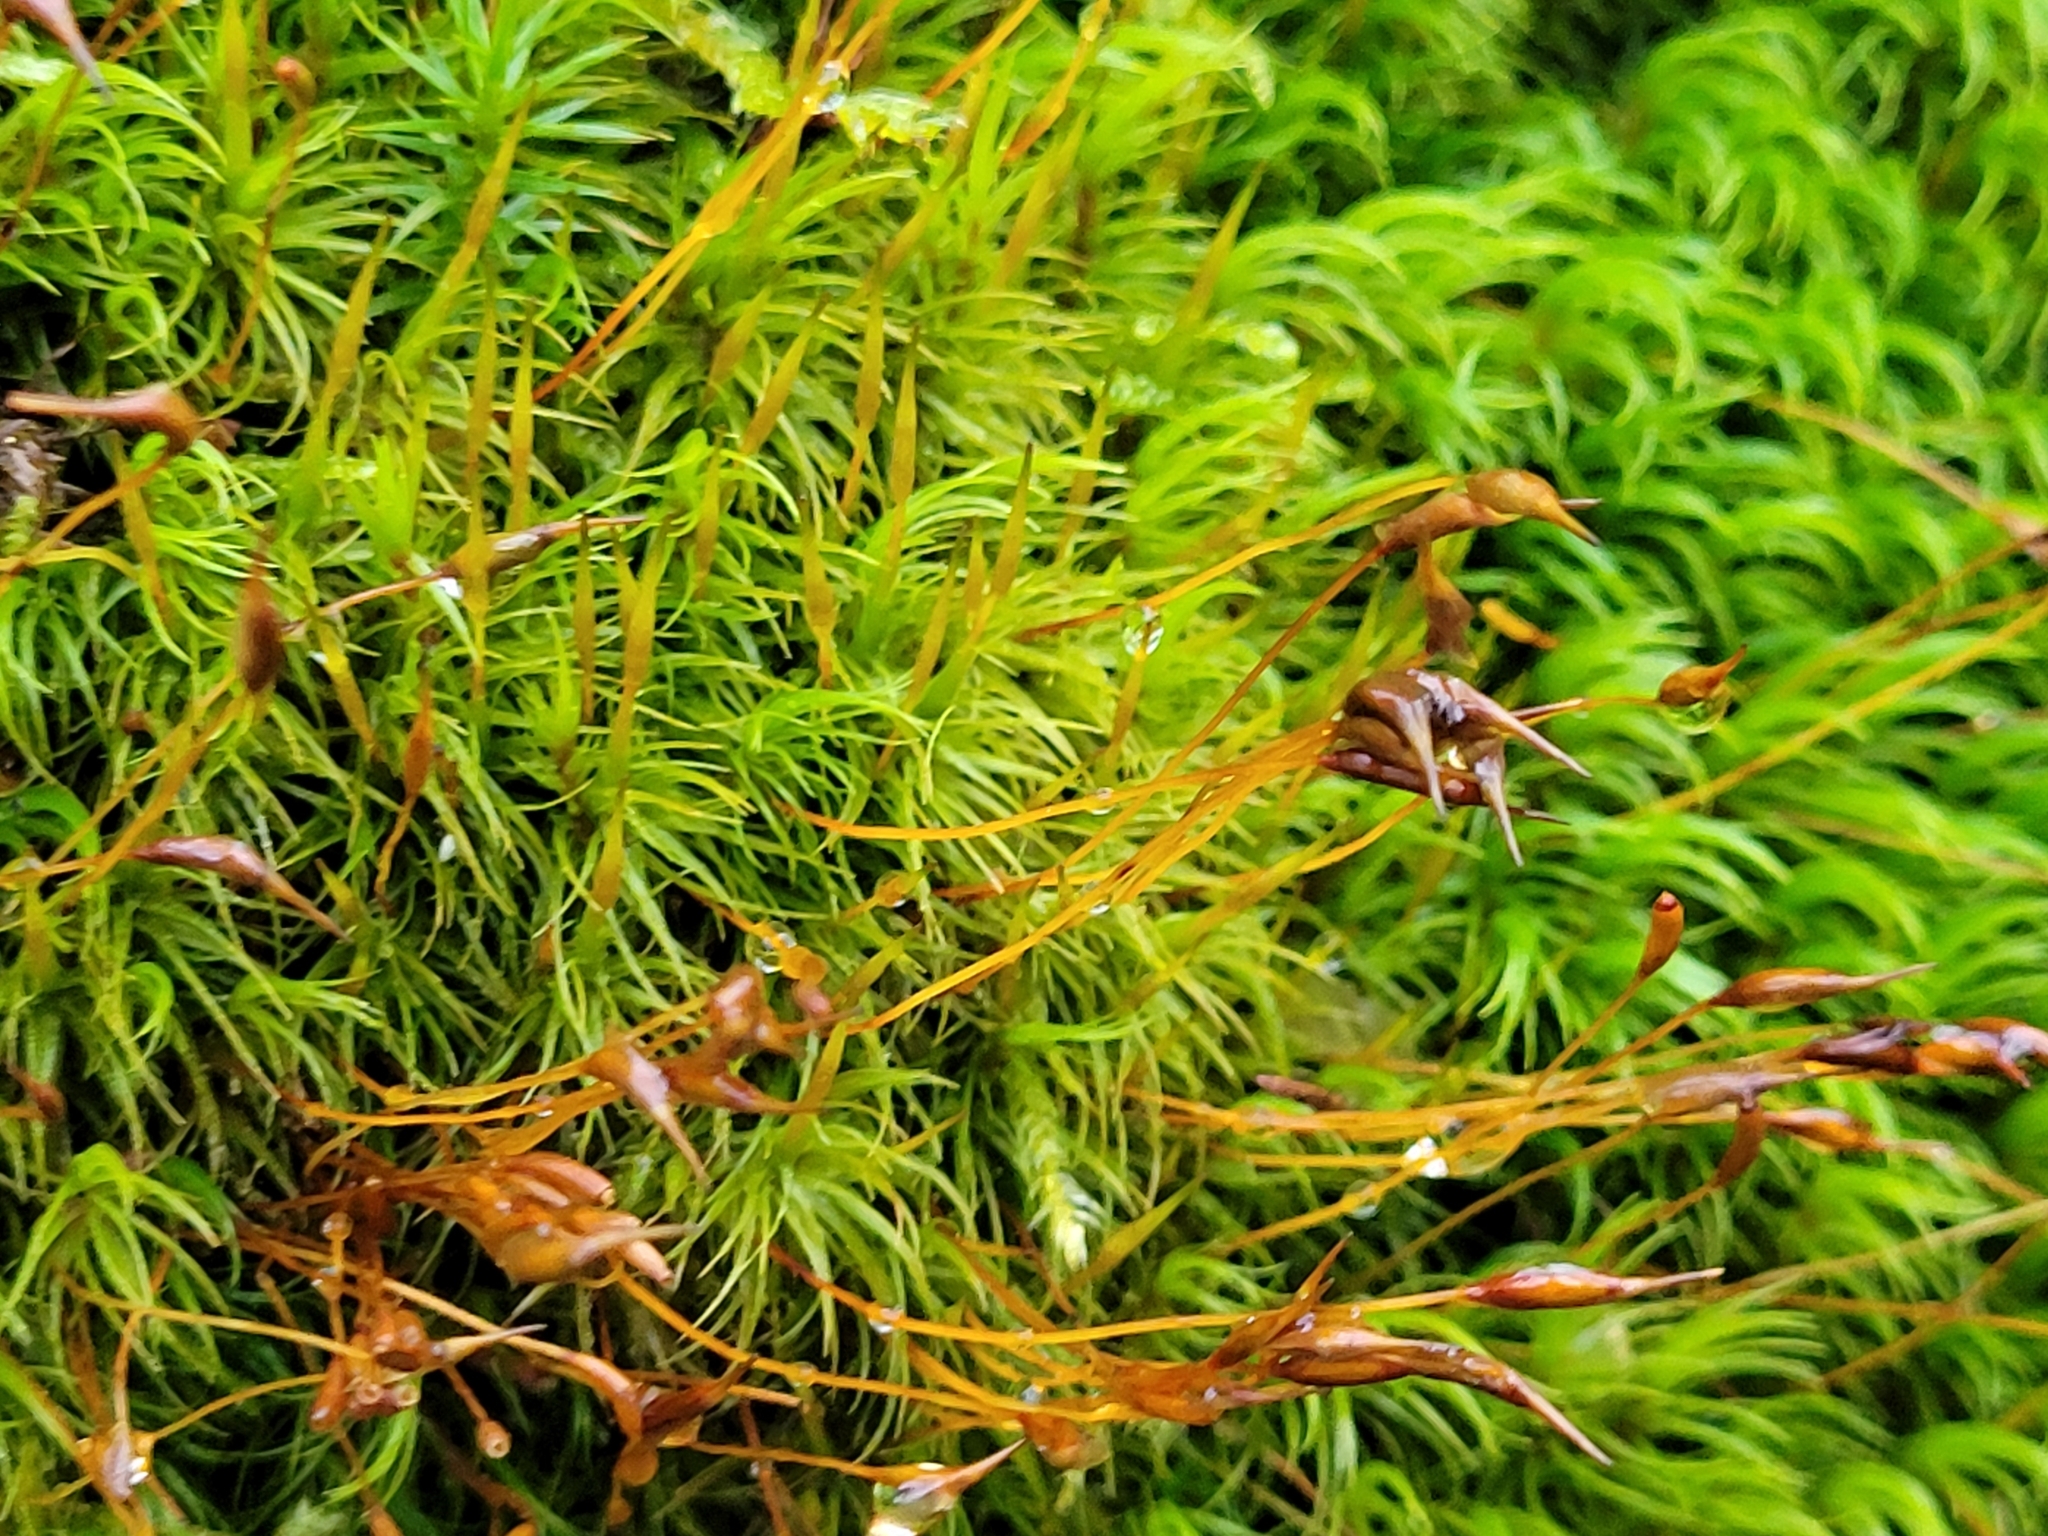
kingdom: Plantae
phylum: Bryophyta
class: Bryopsida
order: Dicranales
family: Dicranaceae
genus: Dicranum
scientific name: Dicranum scoparium
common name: Broom fork-moss
